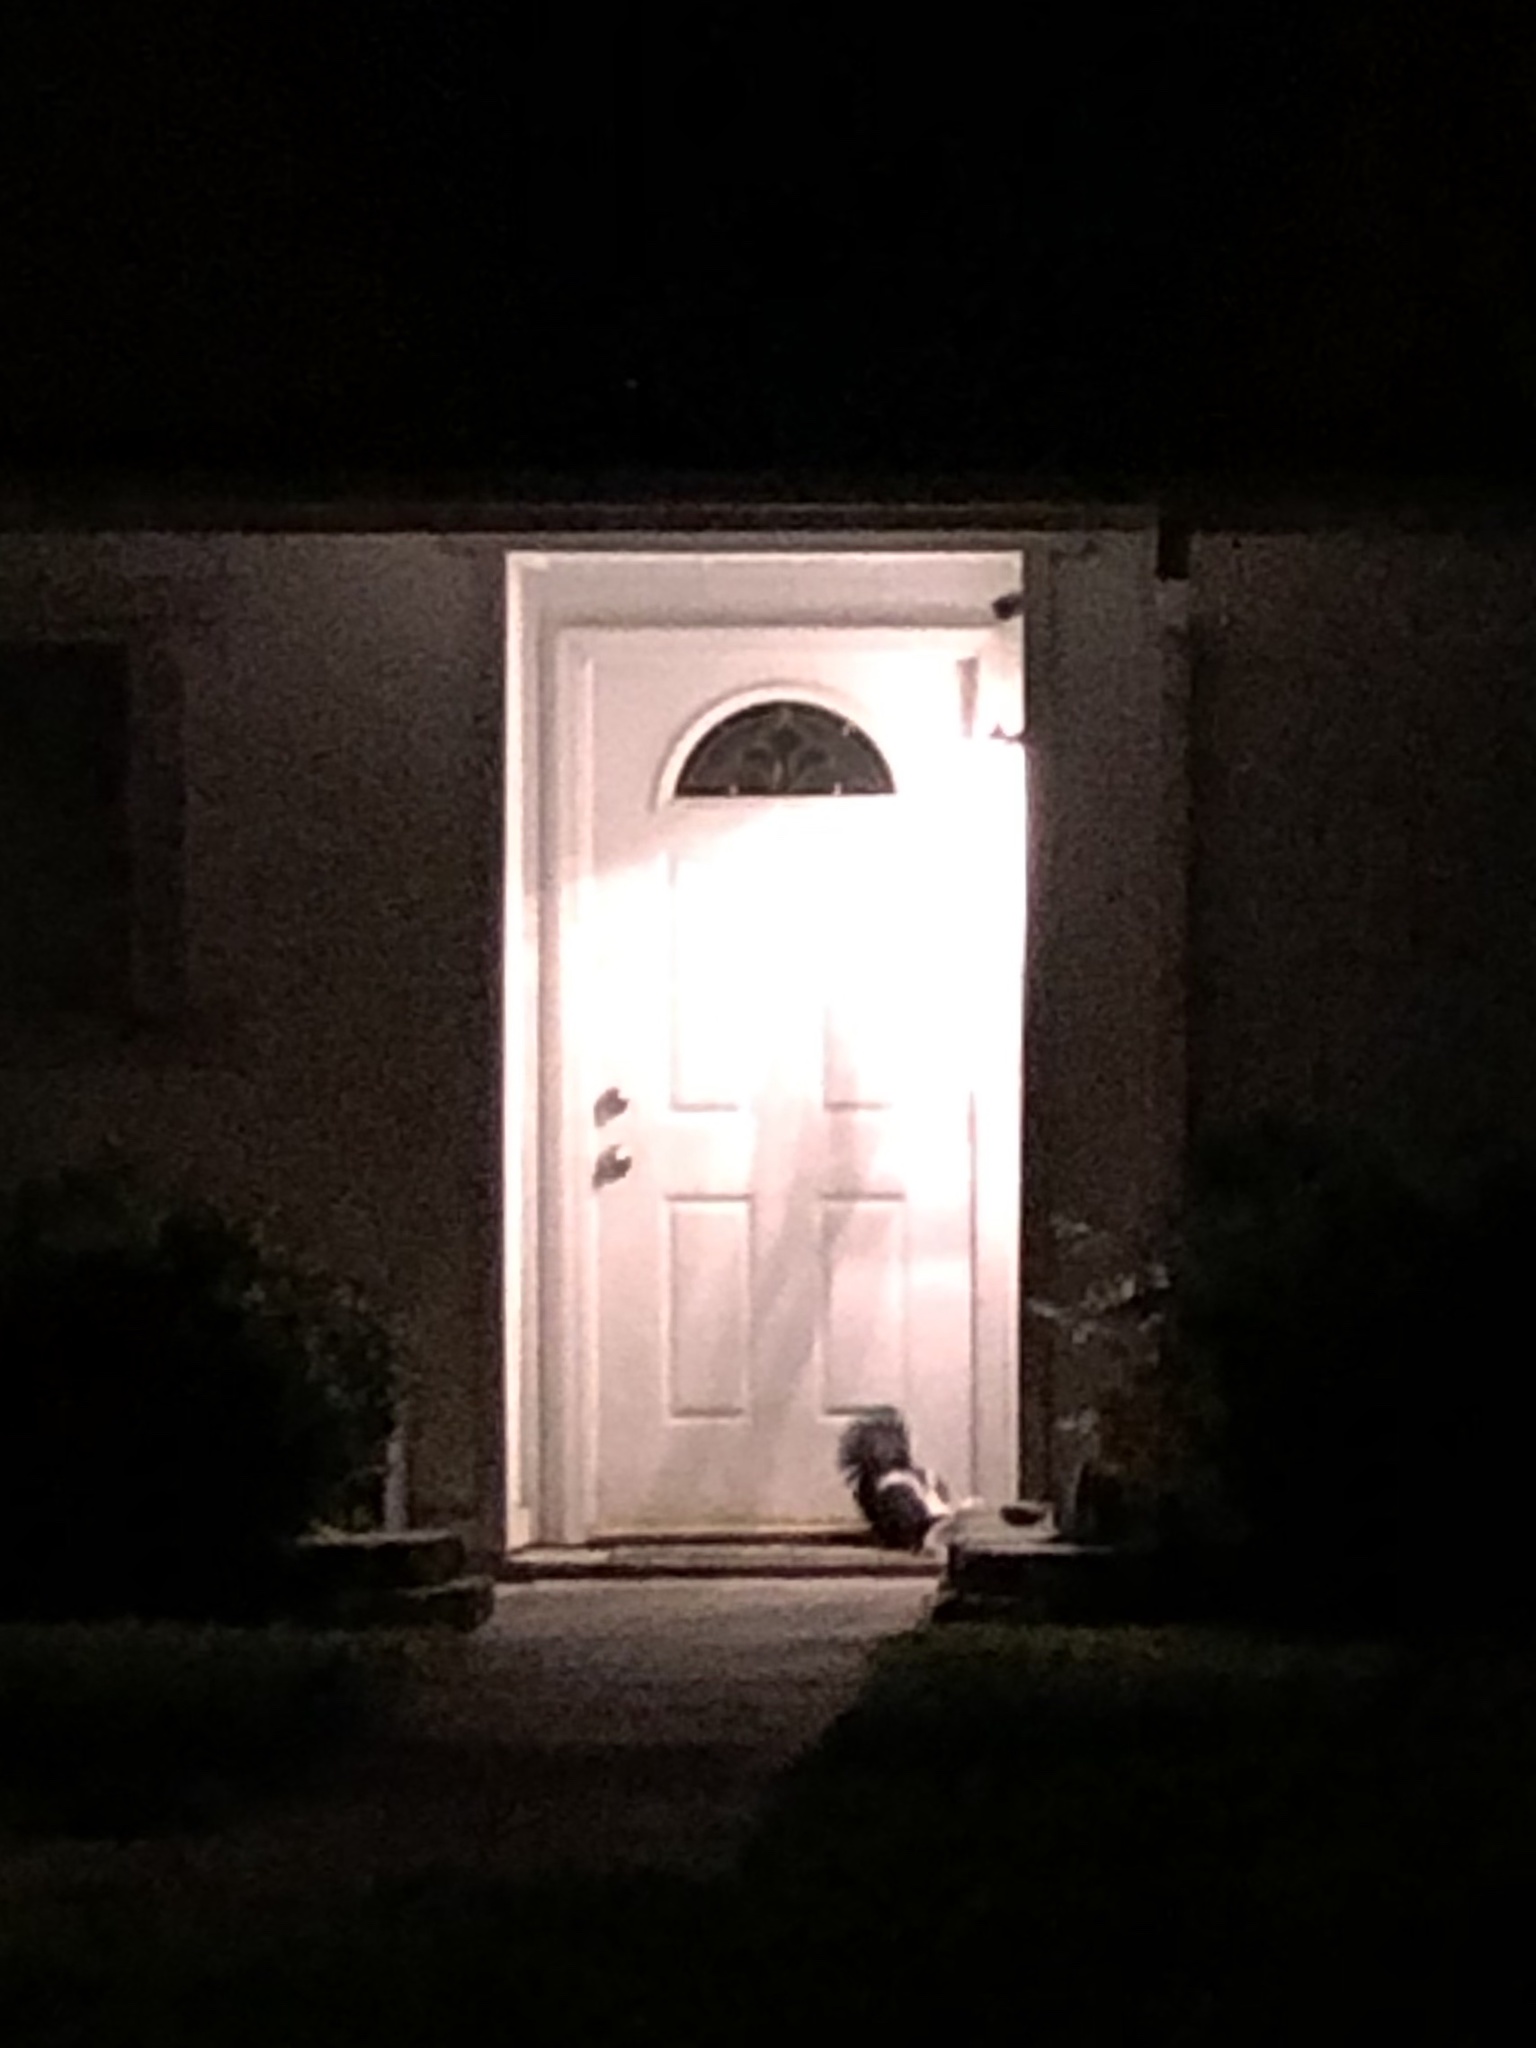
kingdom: Animalia
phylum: Chordata
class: Mammalia
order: Carnivora
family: Mephitidae
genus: Mephitis
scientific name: Mephitis mephitis
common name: Striped skunk
